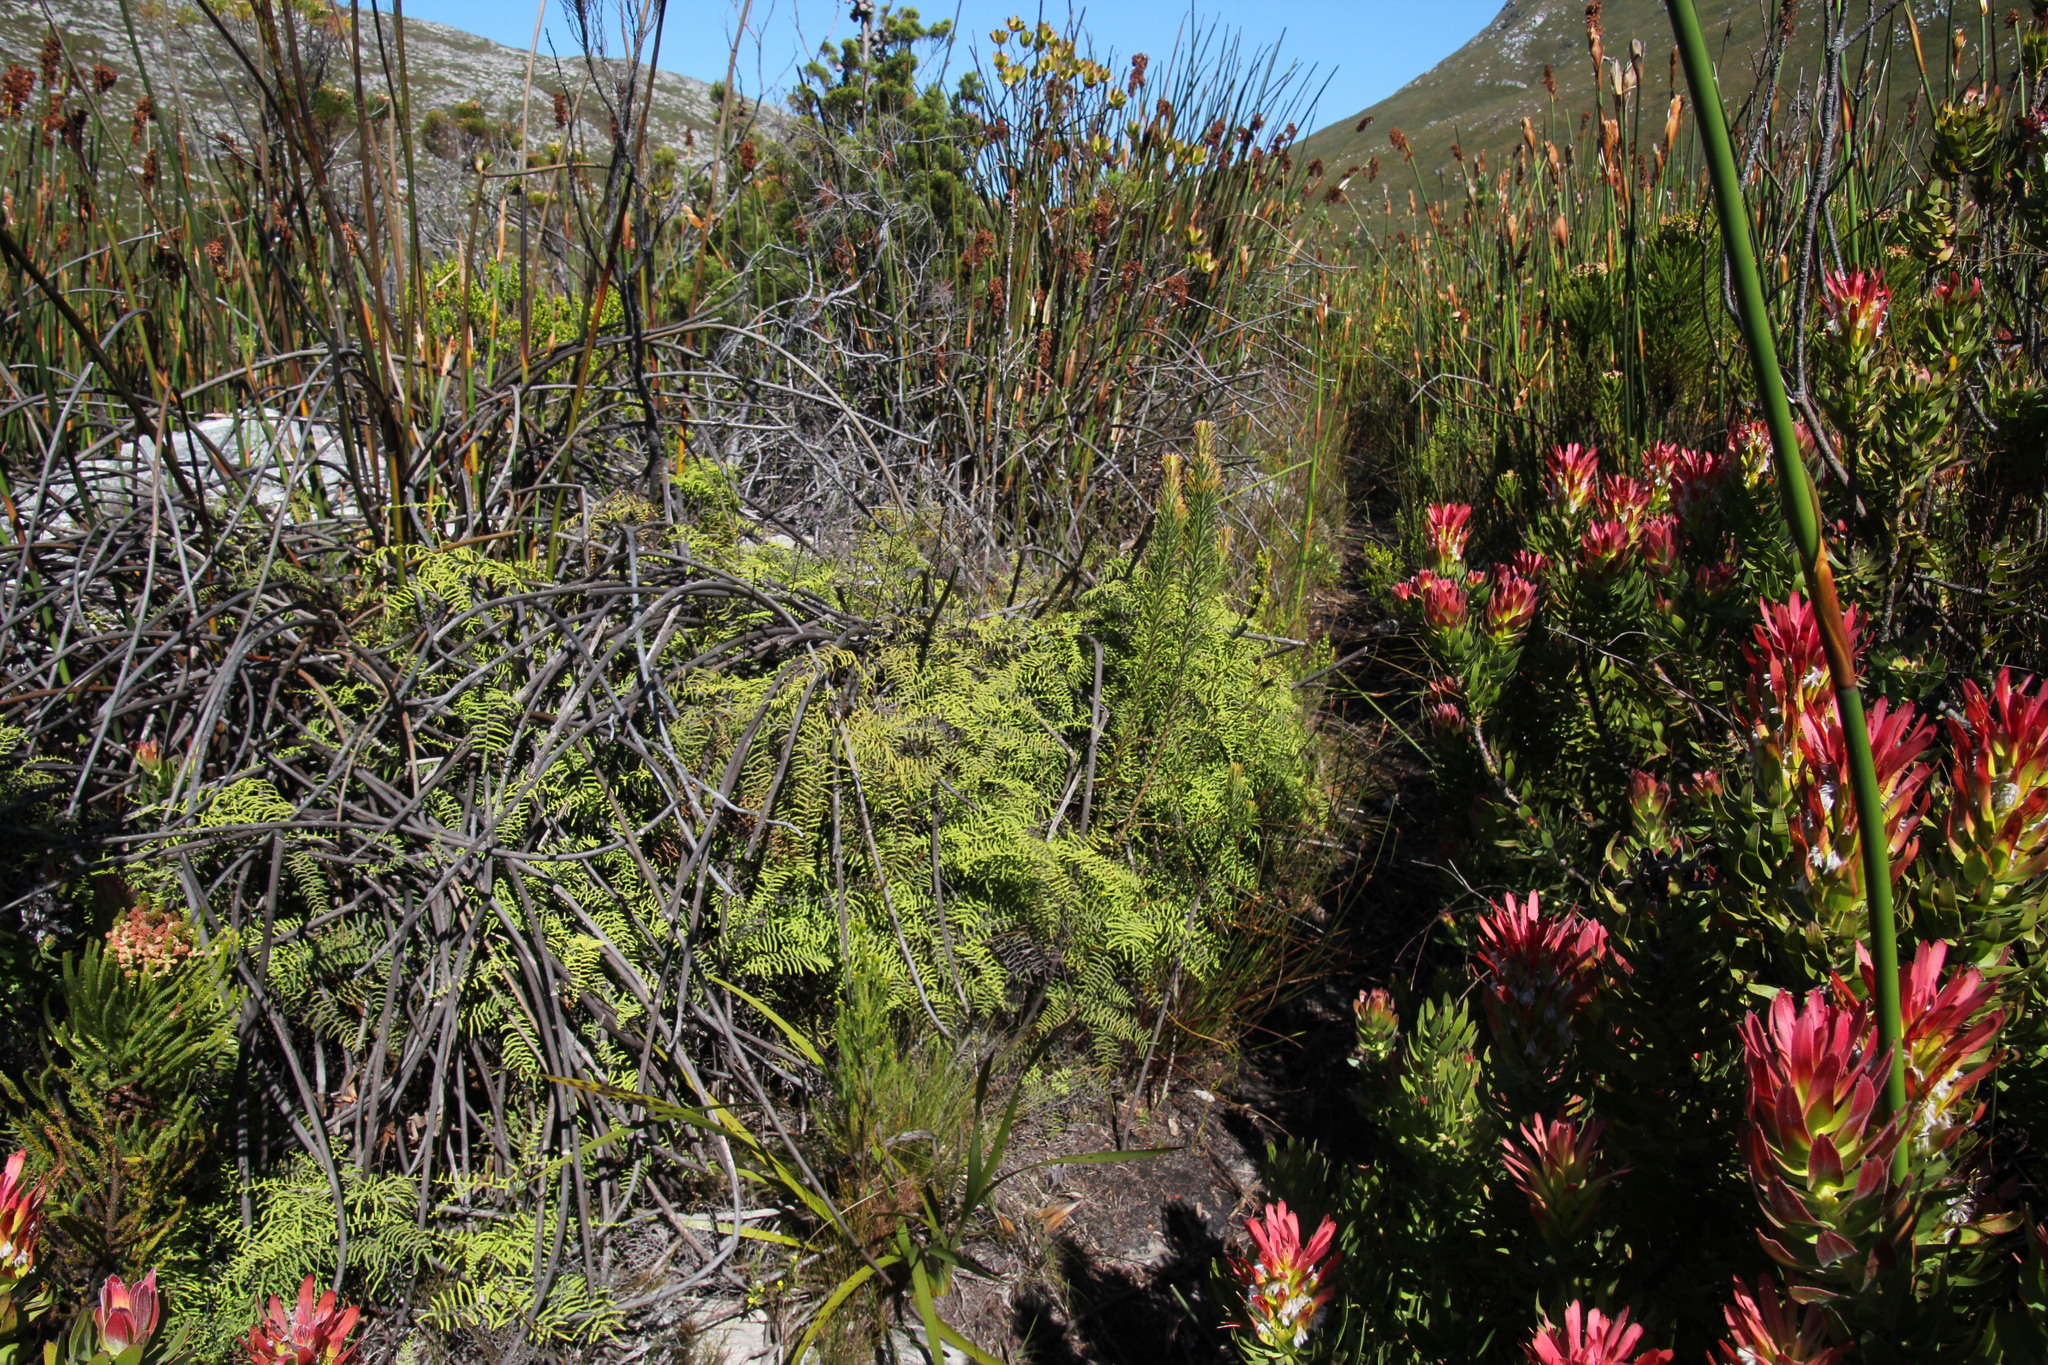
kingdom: Plantae
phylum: Tracheophyta
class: Polypodiopsida
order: Gleicheniales
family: Gleicheniaceae
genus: Gleichenia
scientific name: Gleichenia polypodioides
